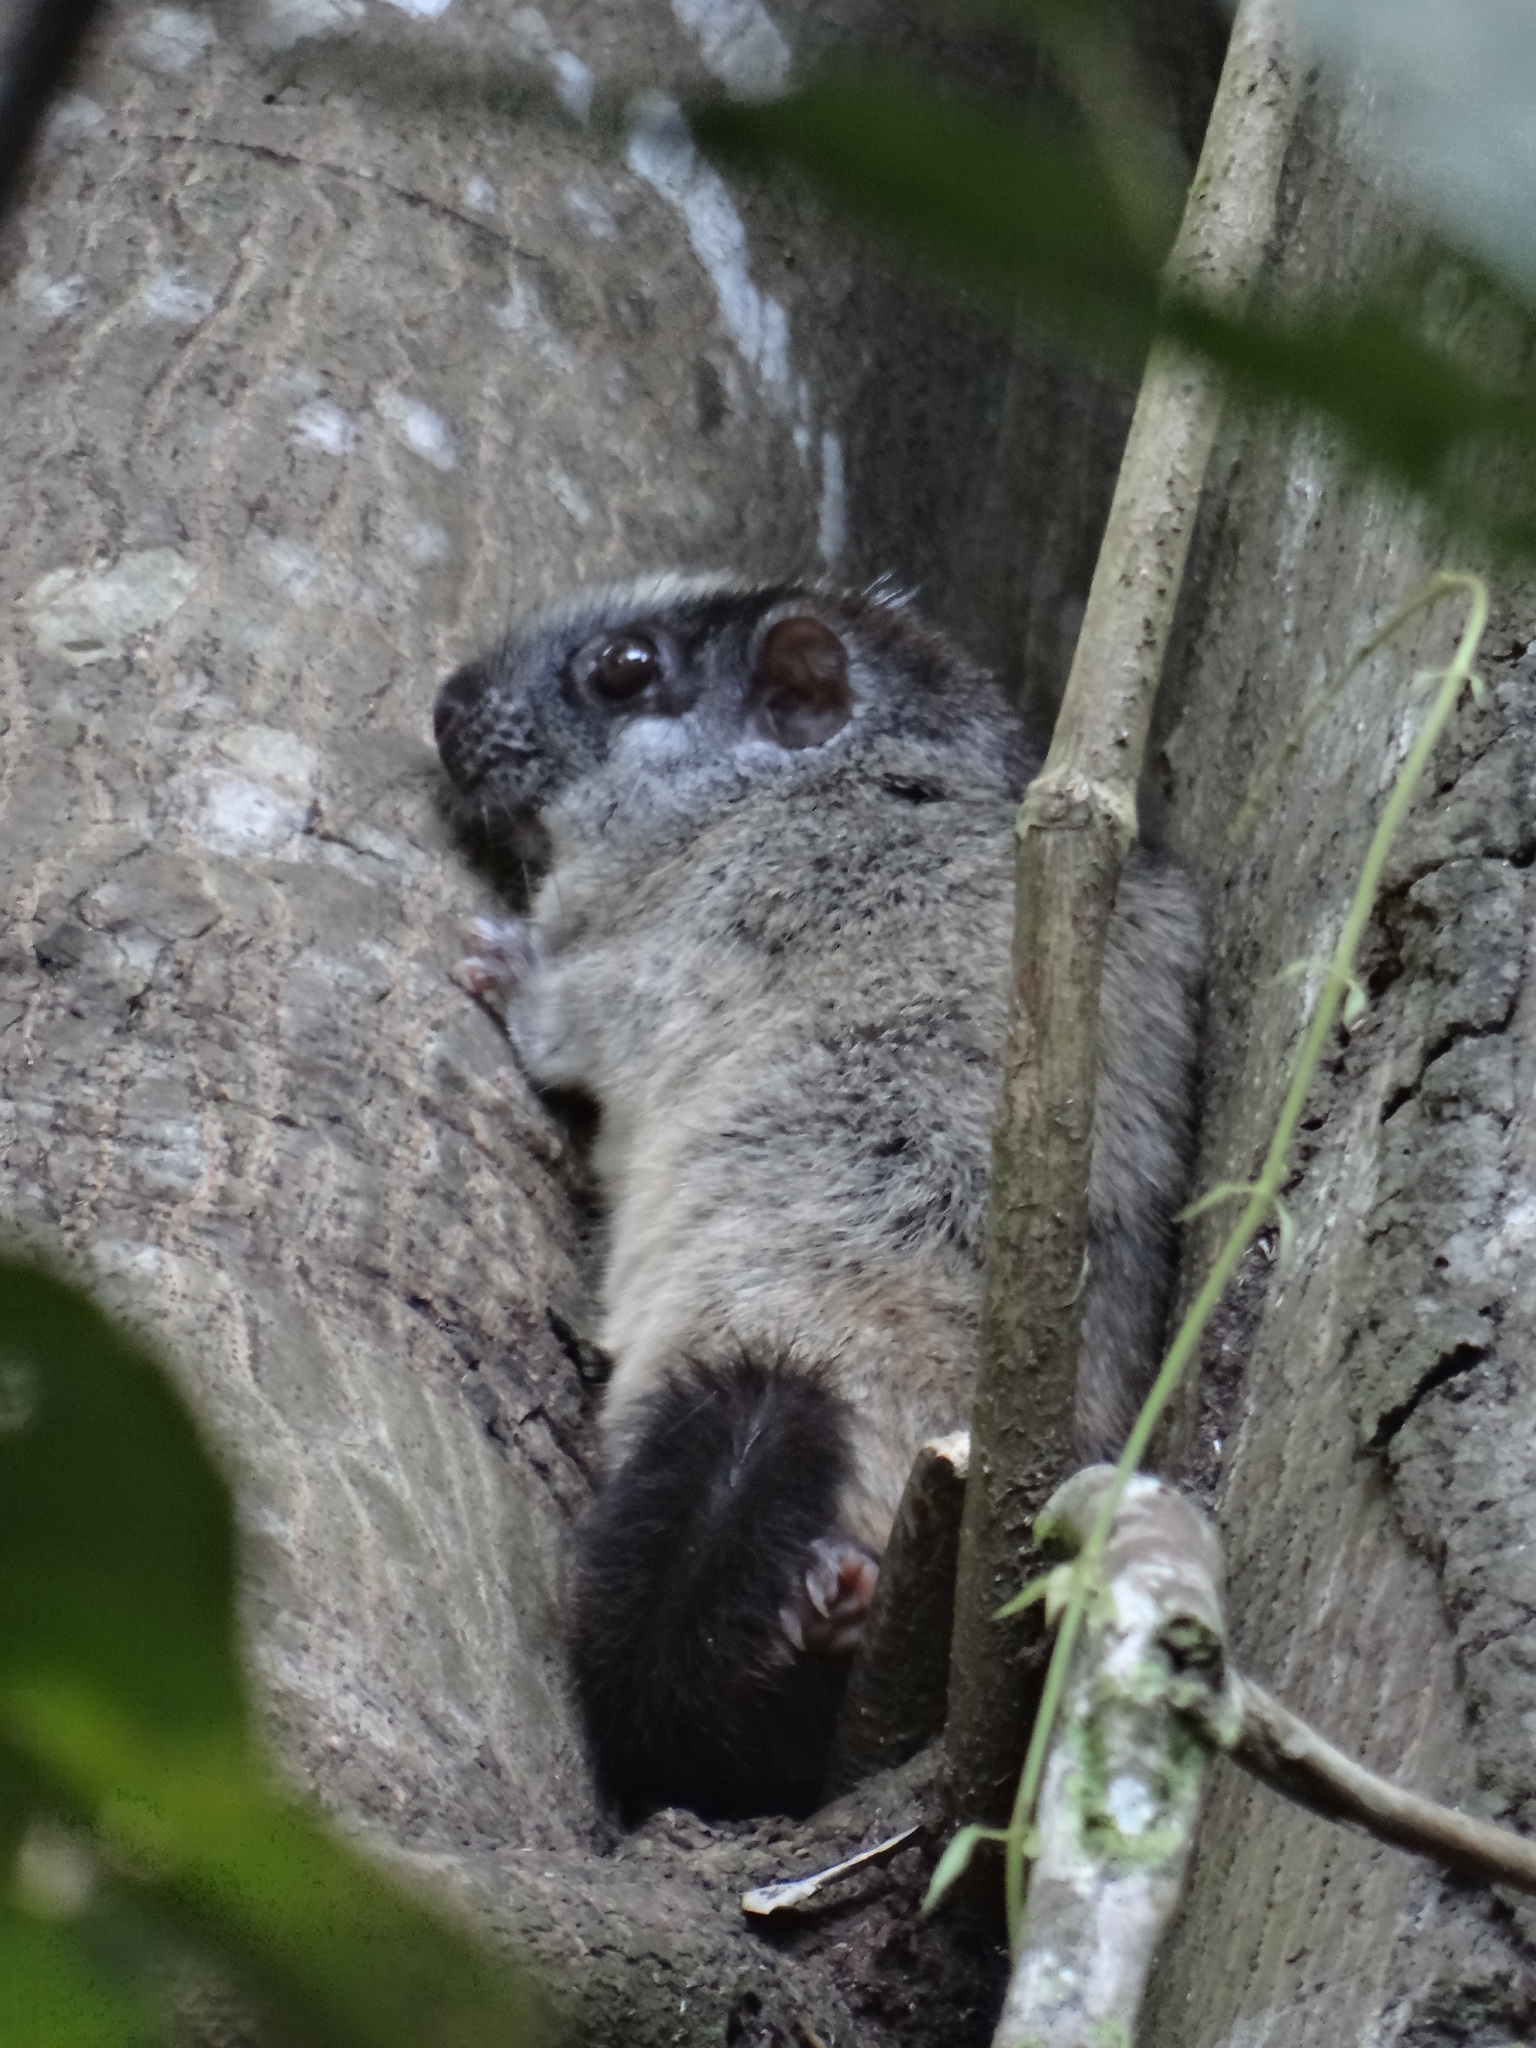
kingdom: Animalia
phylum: Chordata
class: Mammalia
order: Rodentia
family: Echimyidae
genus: Isothrix
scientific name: Isothrix bistriata
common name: Yellow-crowned brush-tailed rat
